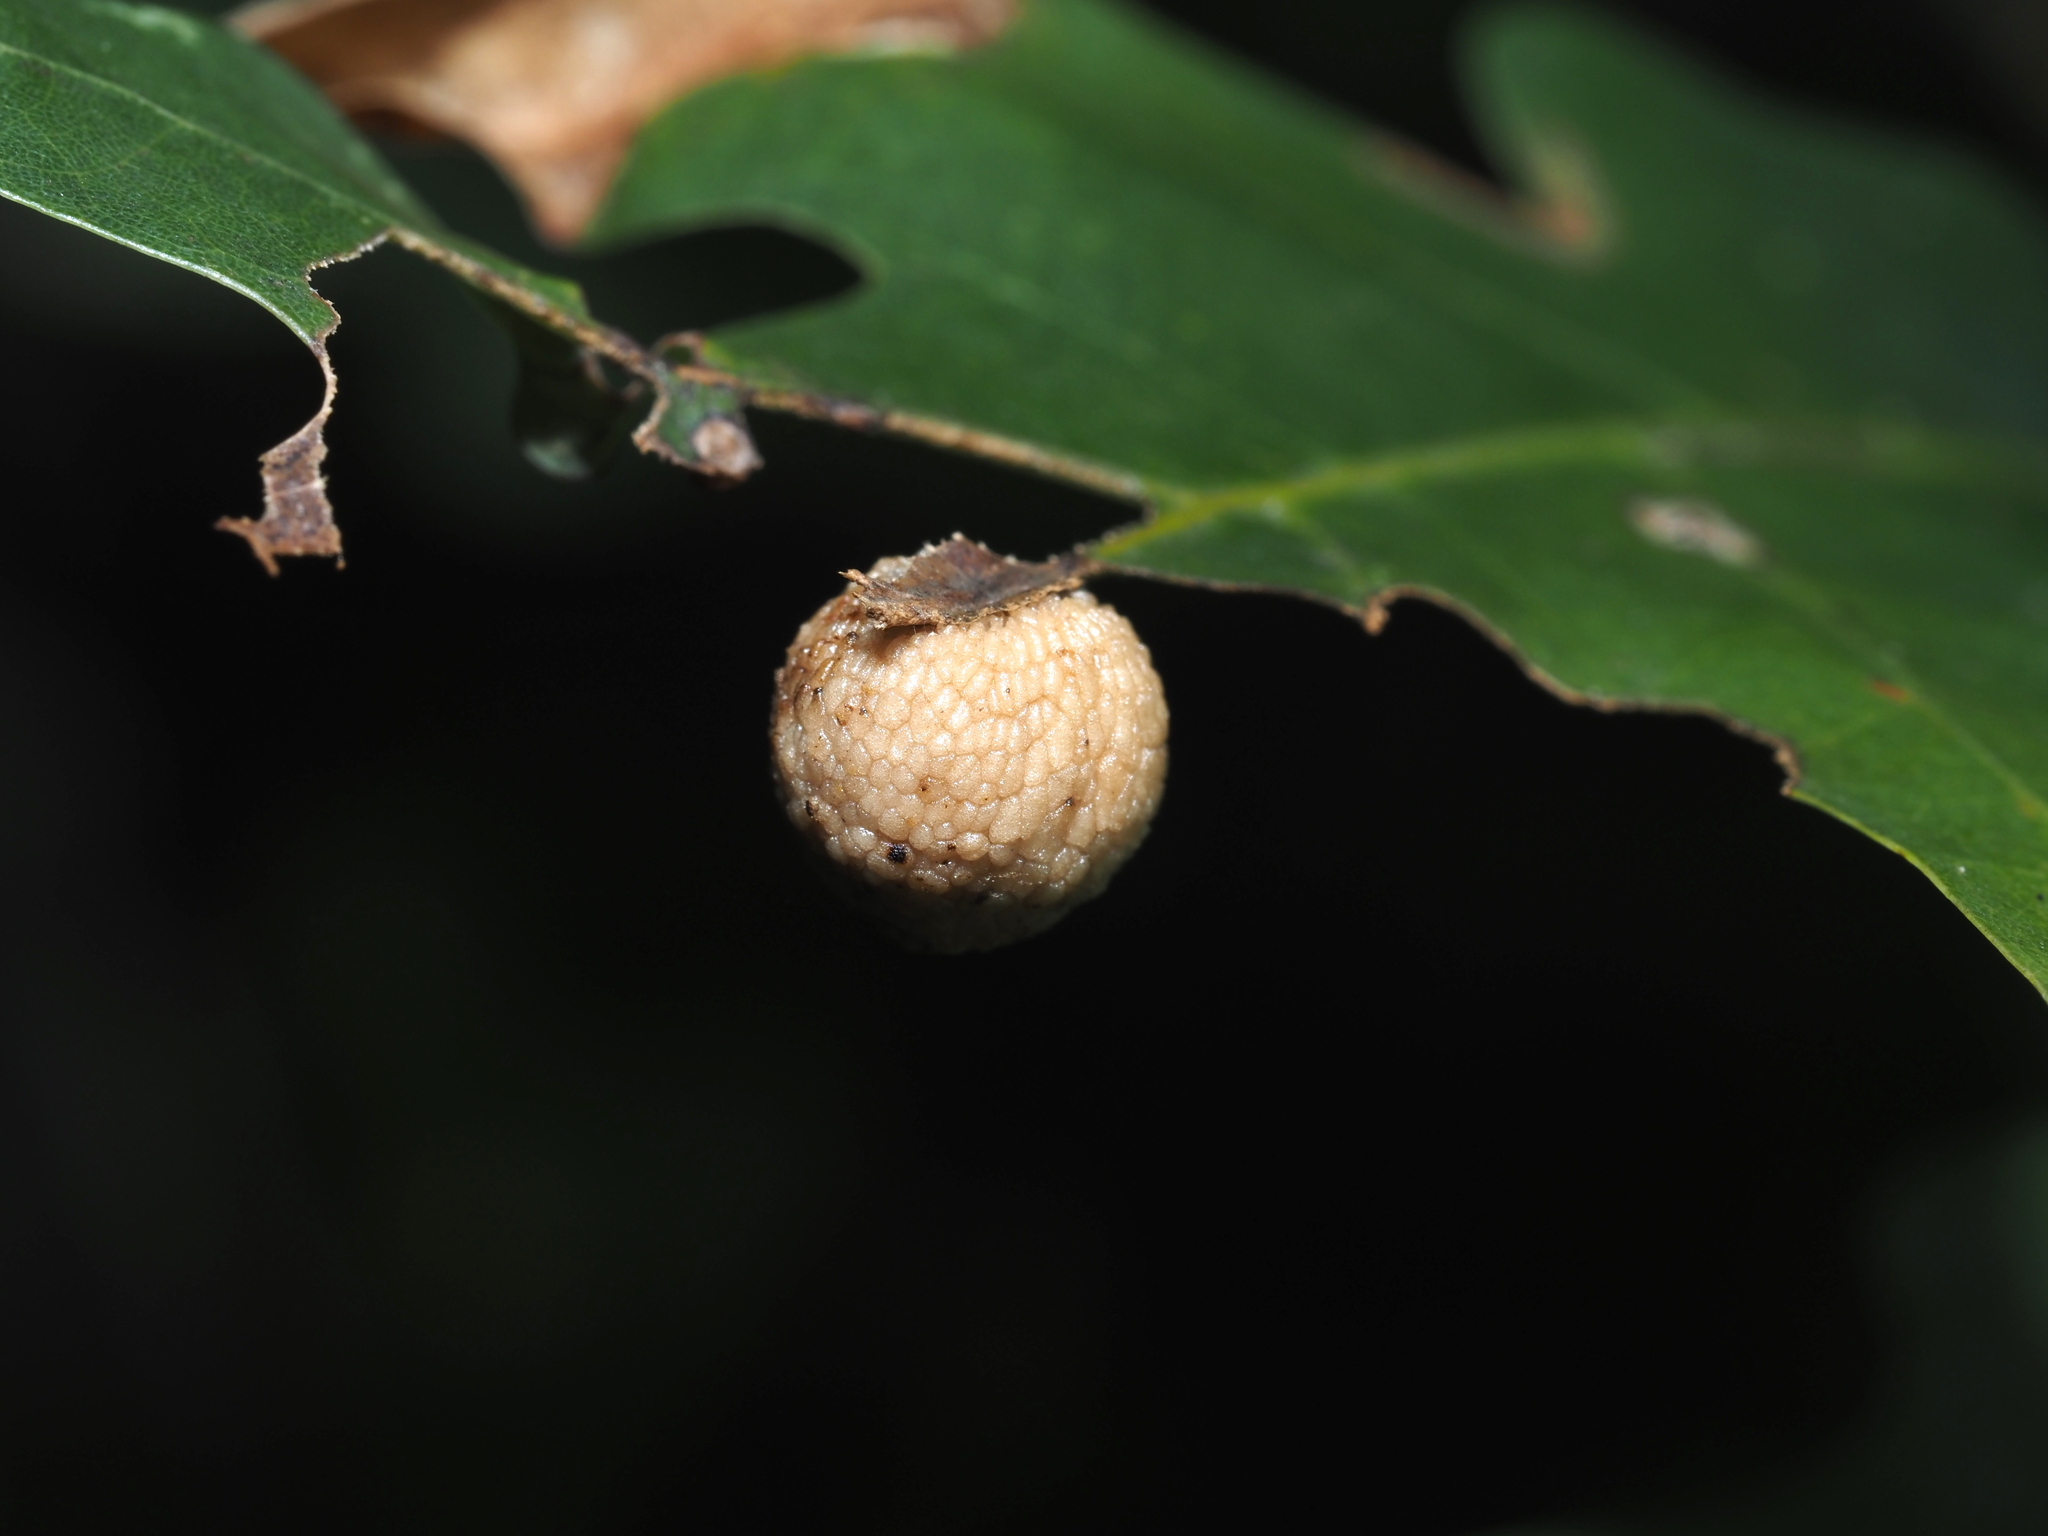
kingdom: Animalia
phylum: Arthropoda
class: Insecta
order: Hymenoptera
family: Cynipidae
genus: Acraspis
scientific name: Acraspis
